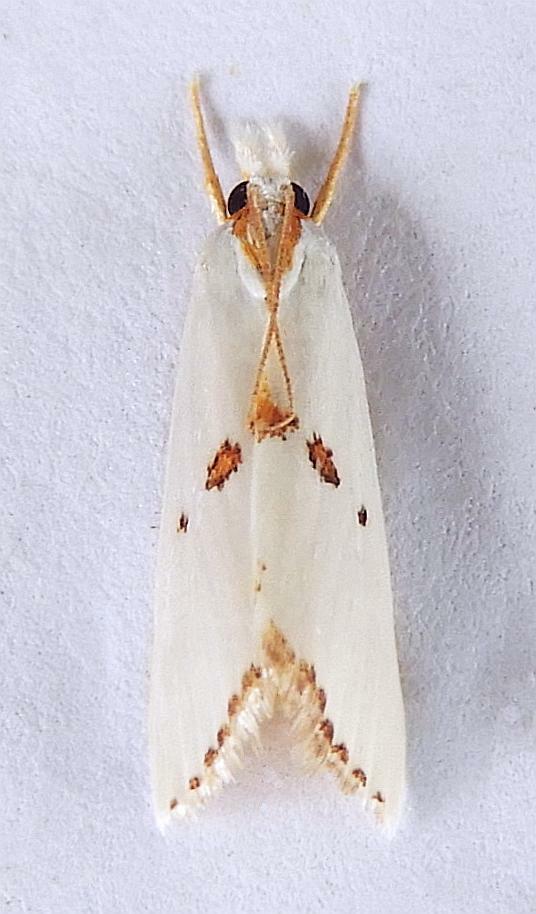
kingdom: Animalia
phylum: Arthropoda
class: Insecta
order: Lepidoptera
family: Crambidae
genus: Crambus
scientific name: Crambus tripsacas
